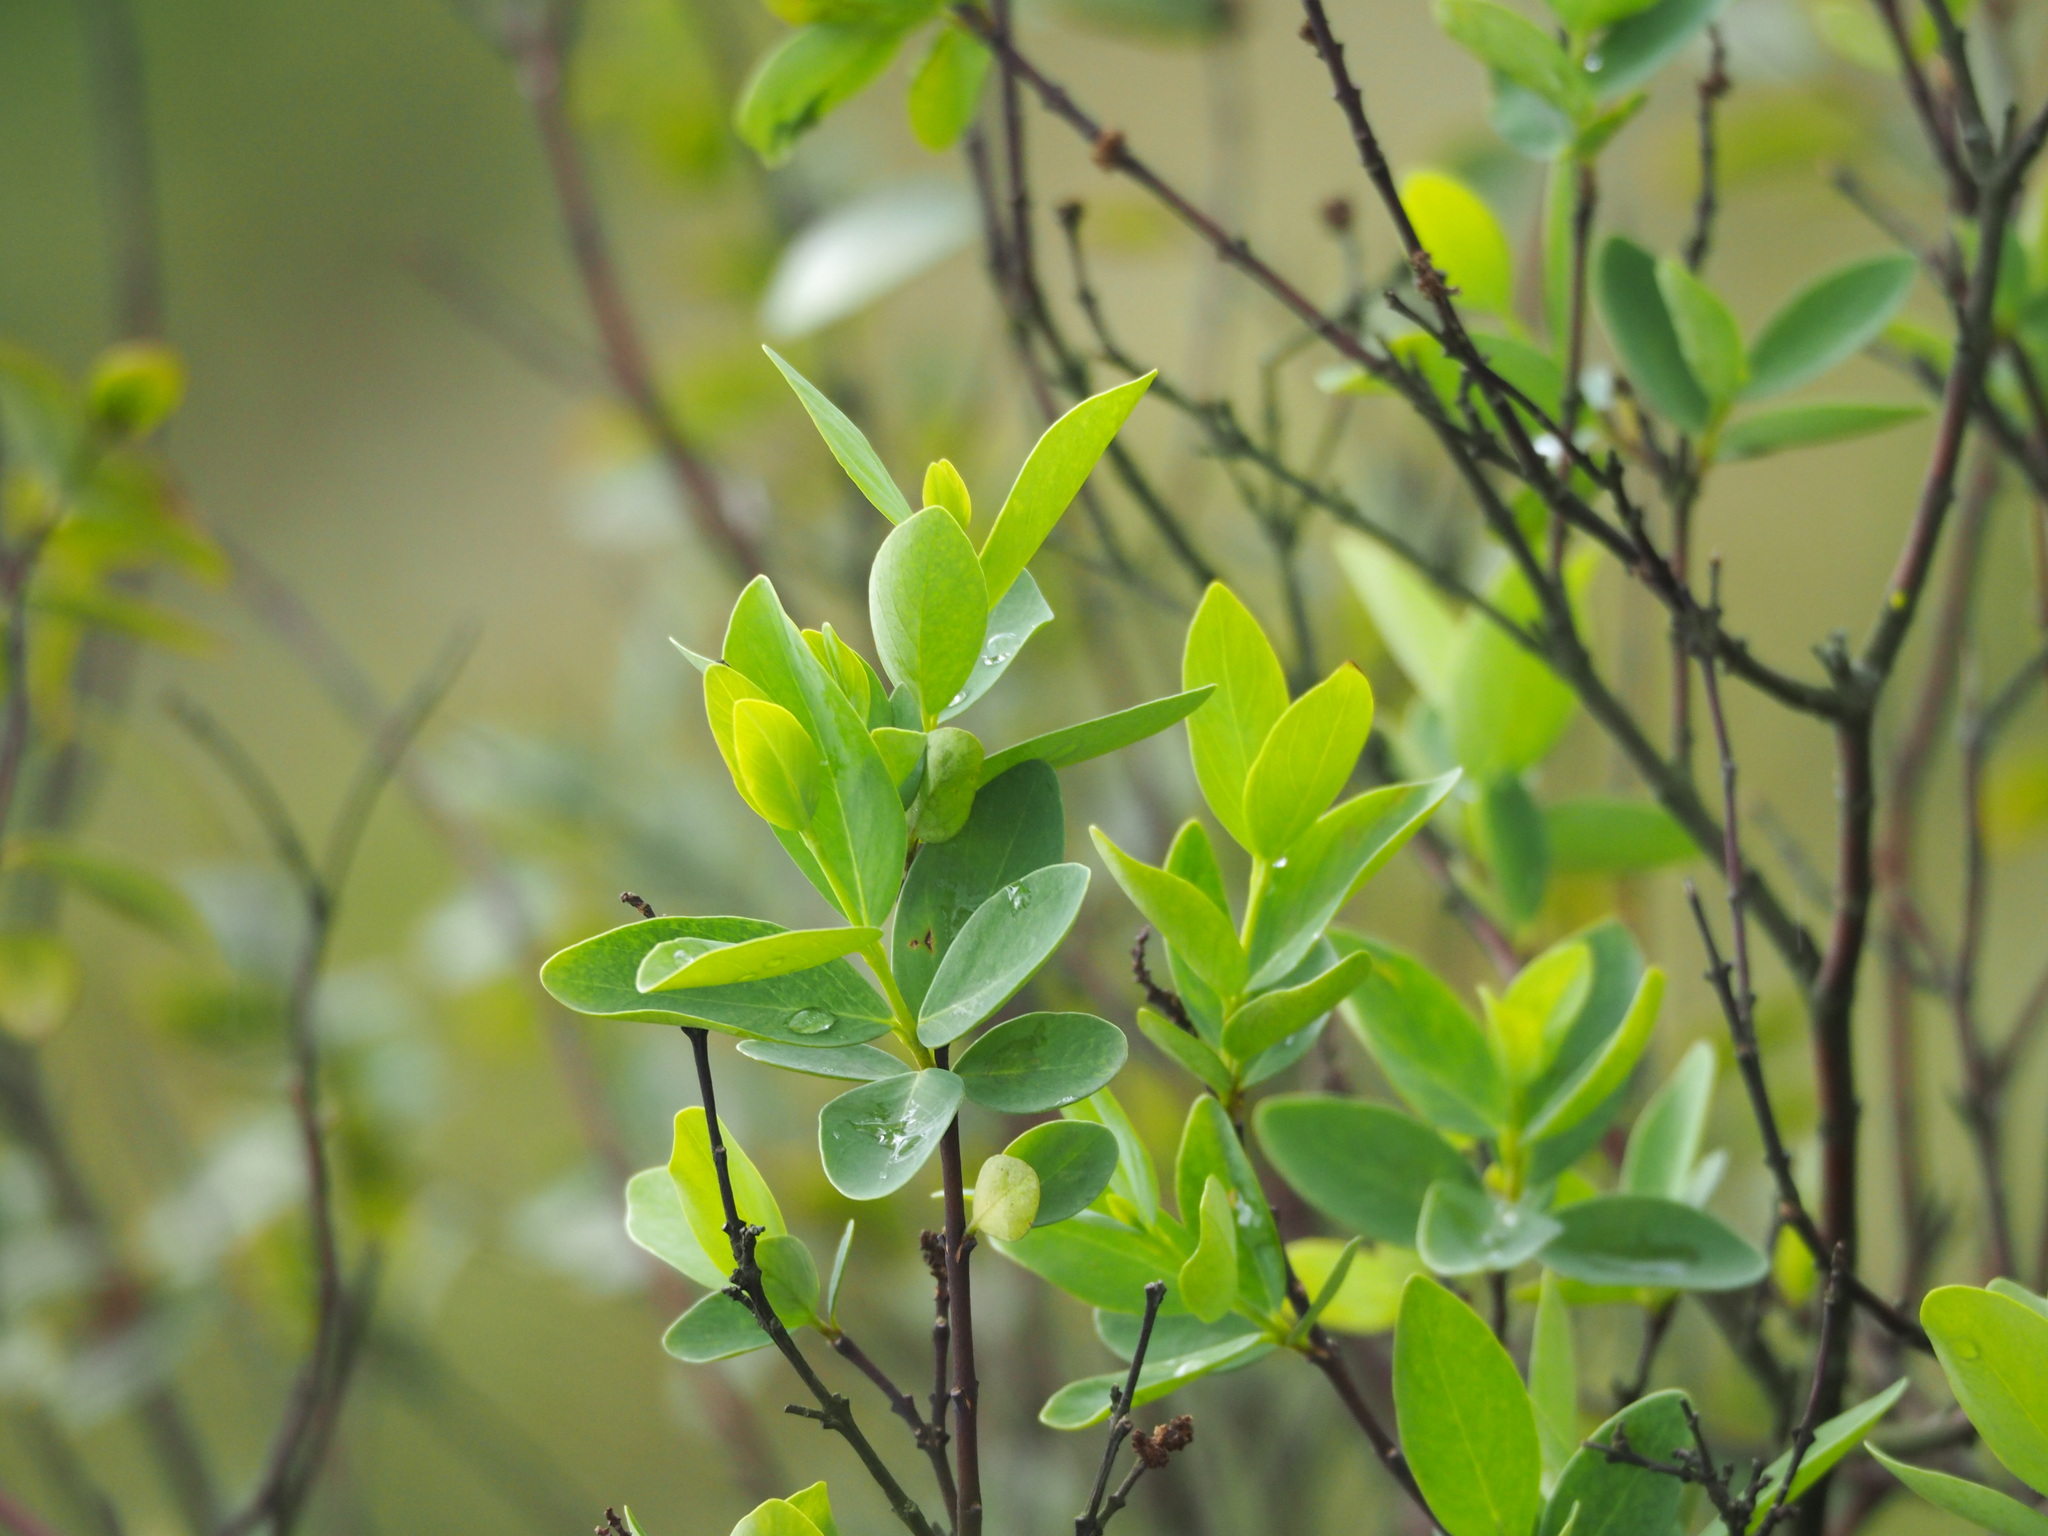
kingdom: Plantae
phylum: Tracheophyta
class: Magnoliopsida
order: Malvales
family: Thymelaeaceae
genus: Wikstroemia
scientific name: Wikstroemia indica
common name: Tiebush
